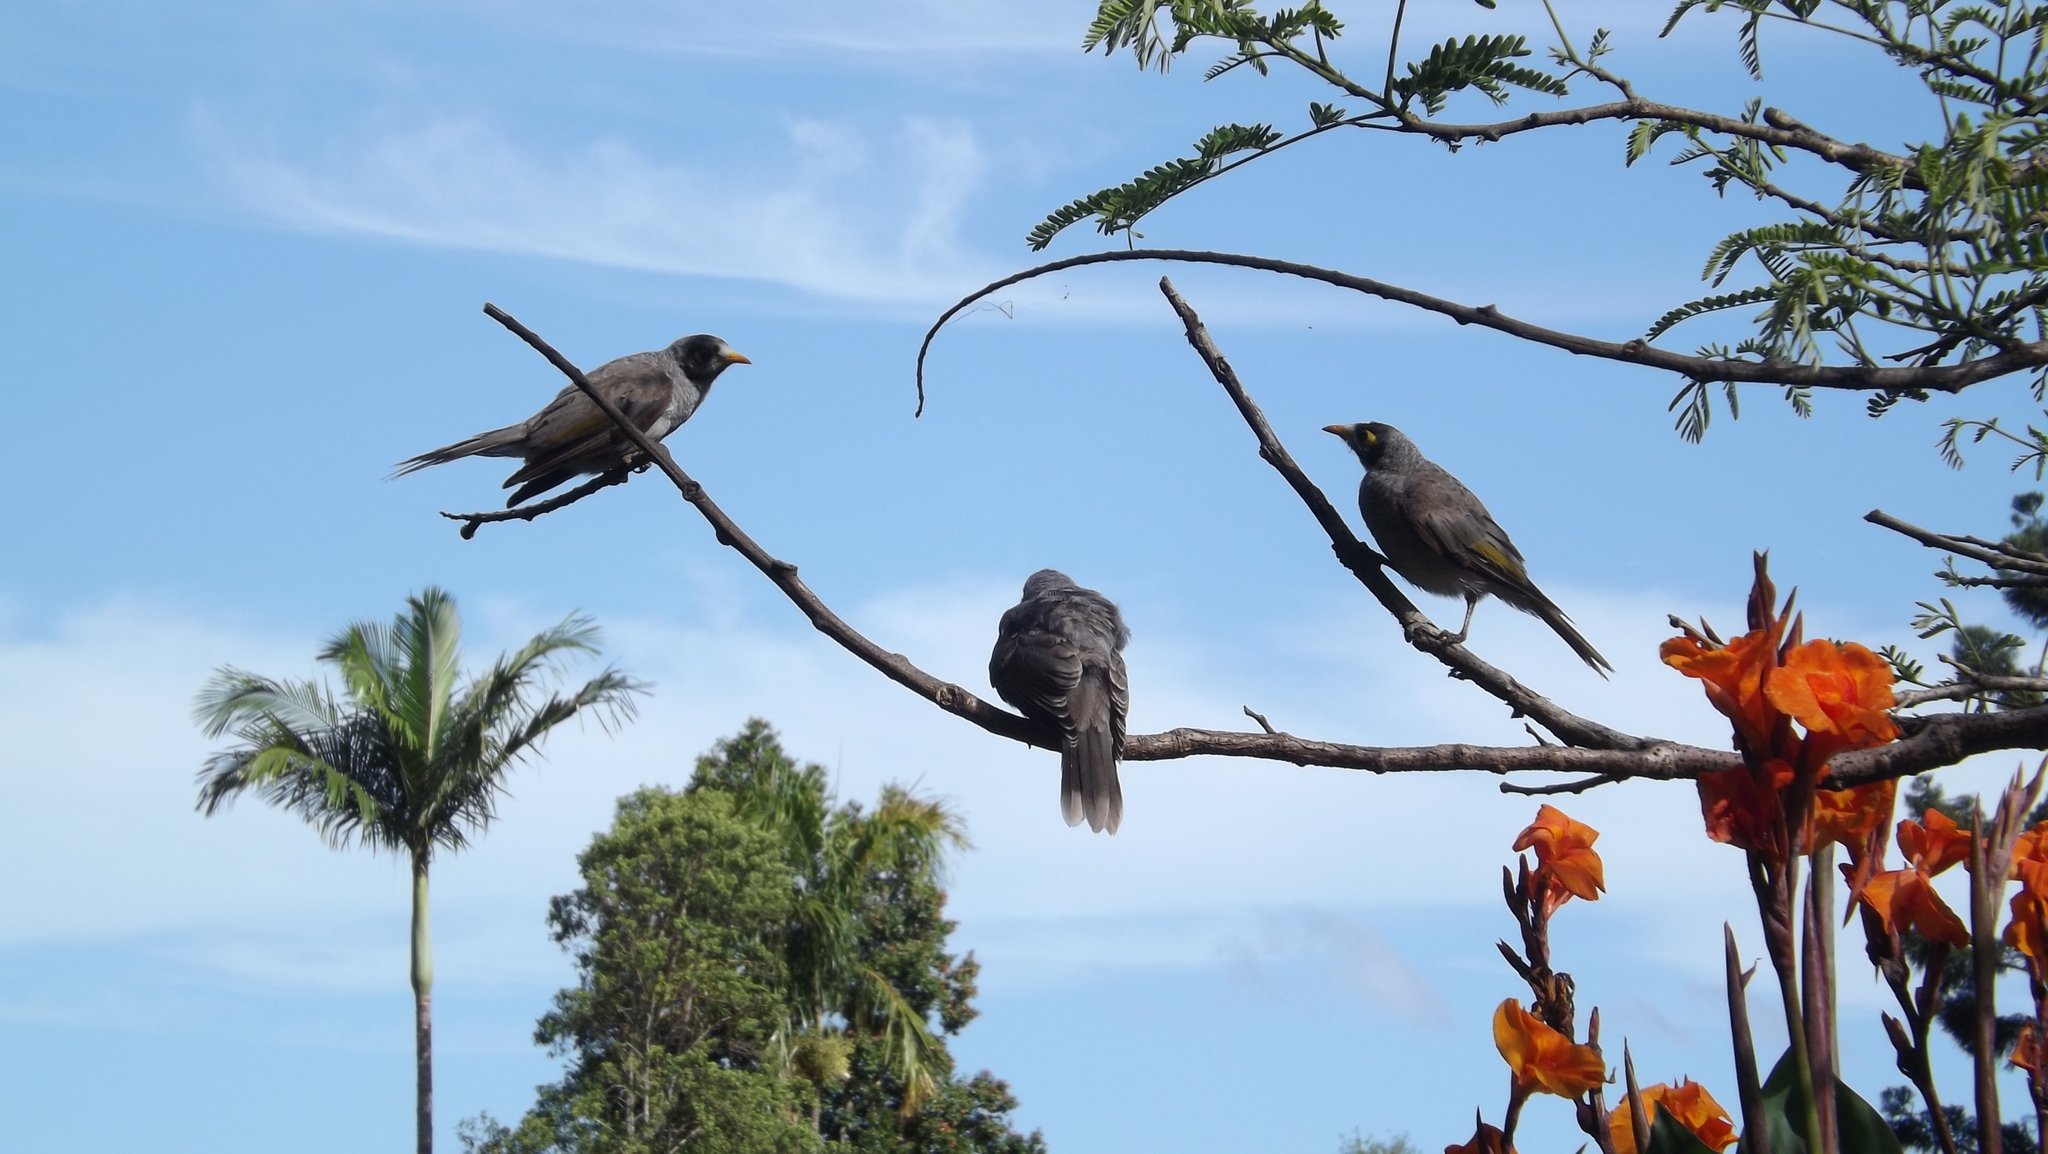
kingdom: Animalia
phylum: Chordata
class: Aves
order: Passeriformes
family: Meliphagidae
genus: Manorina
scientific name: Manorina melanocephala
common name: Noisy miner
